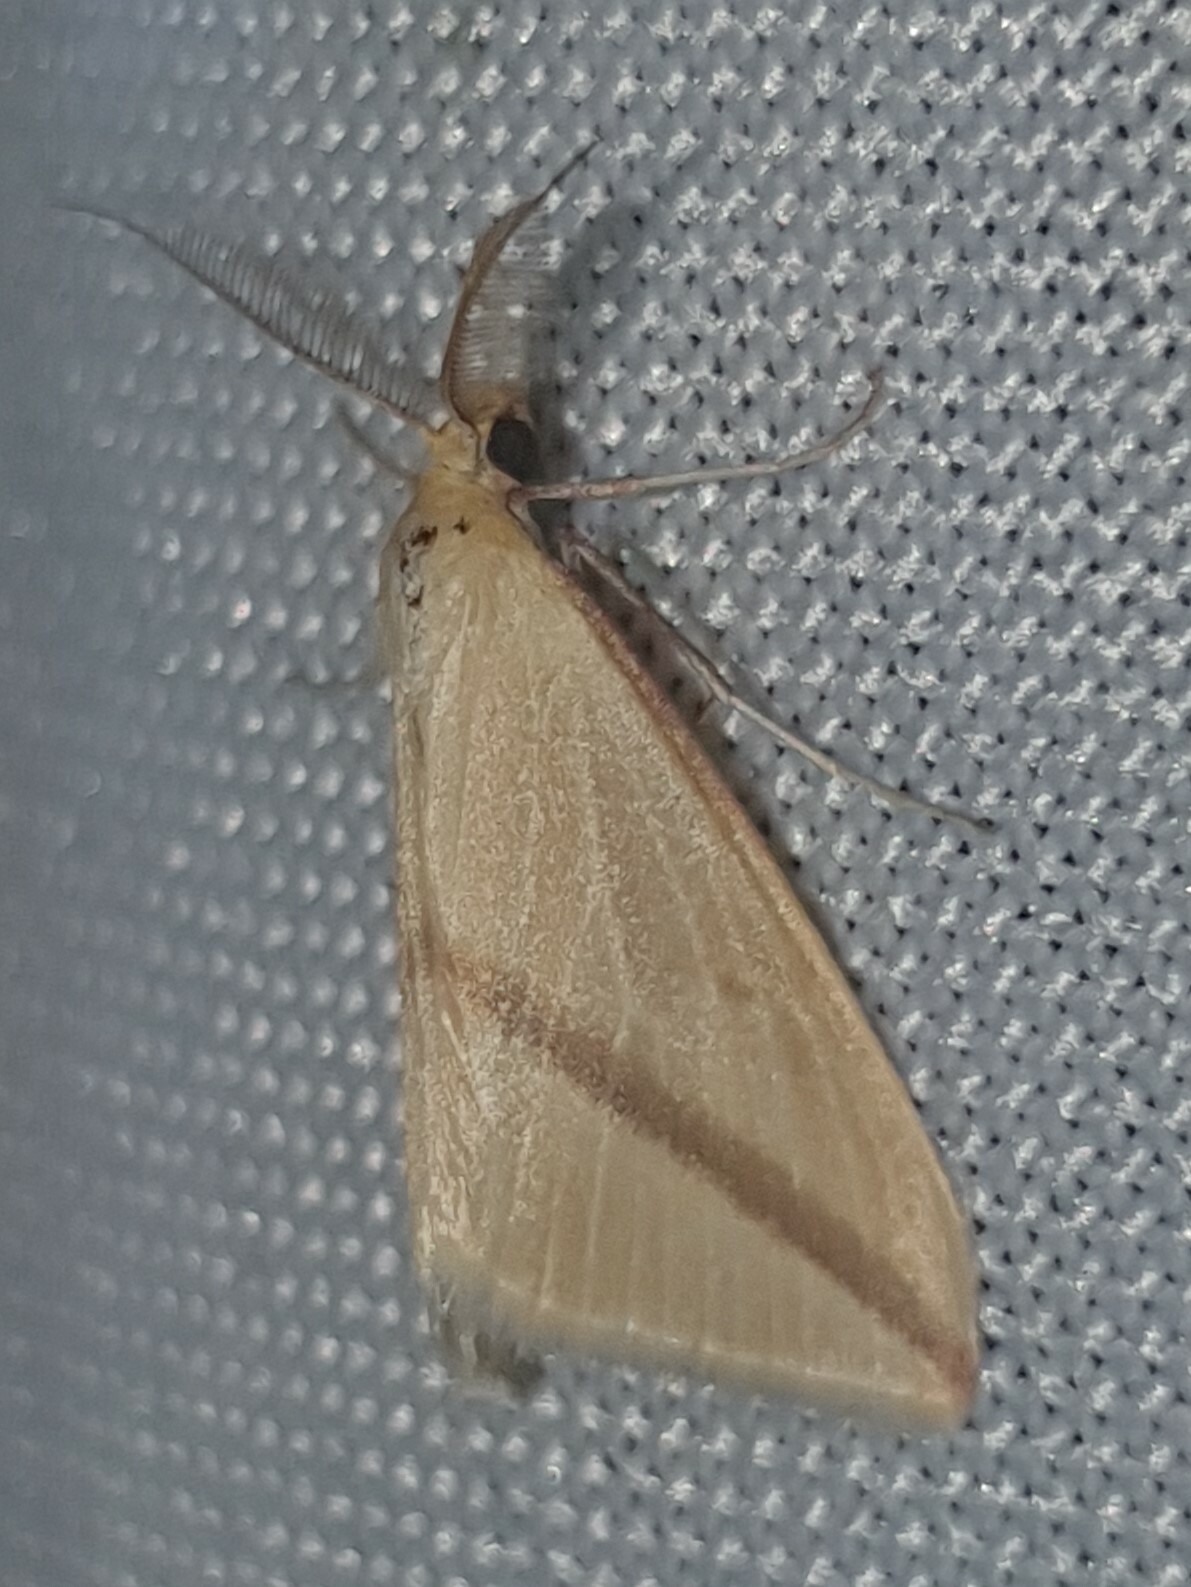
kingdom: Animalia
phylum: Arthropoda
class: Insecta
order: Lepidoptera
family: Geometridae
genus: Rhodometra
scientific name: Rhodometra sacraria
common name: Vestal
